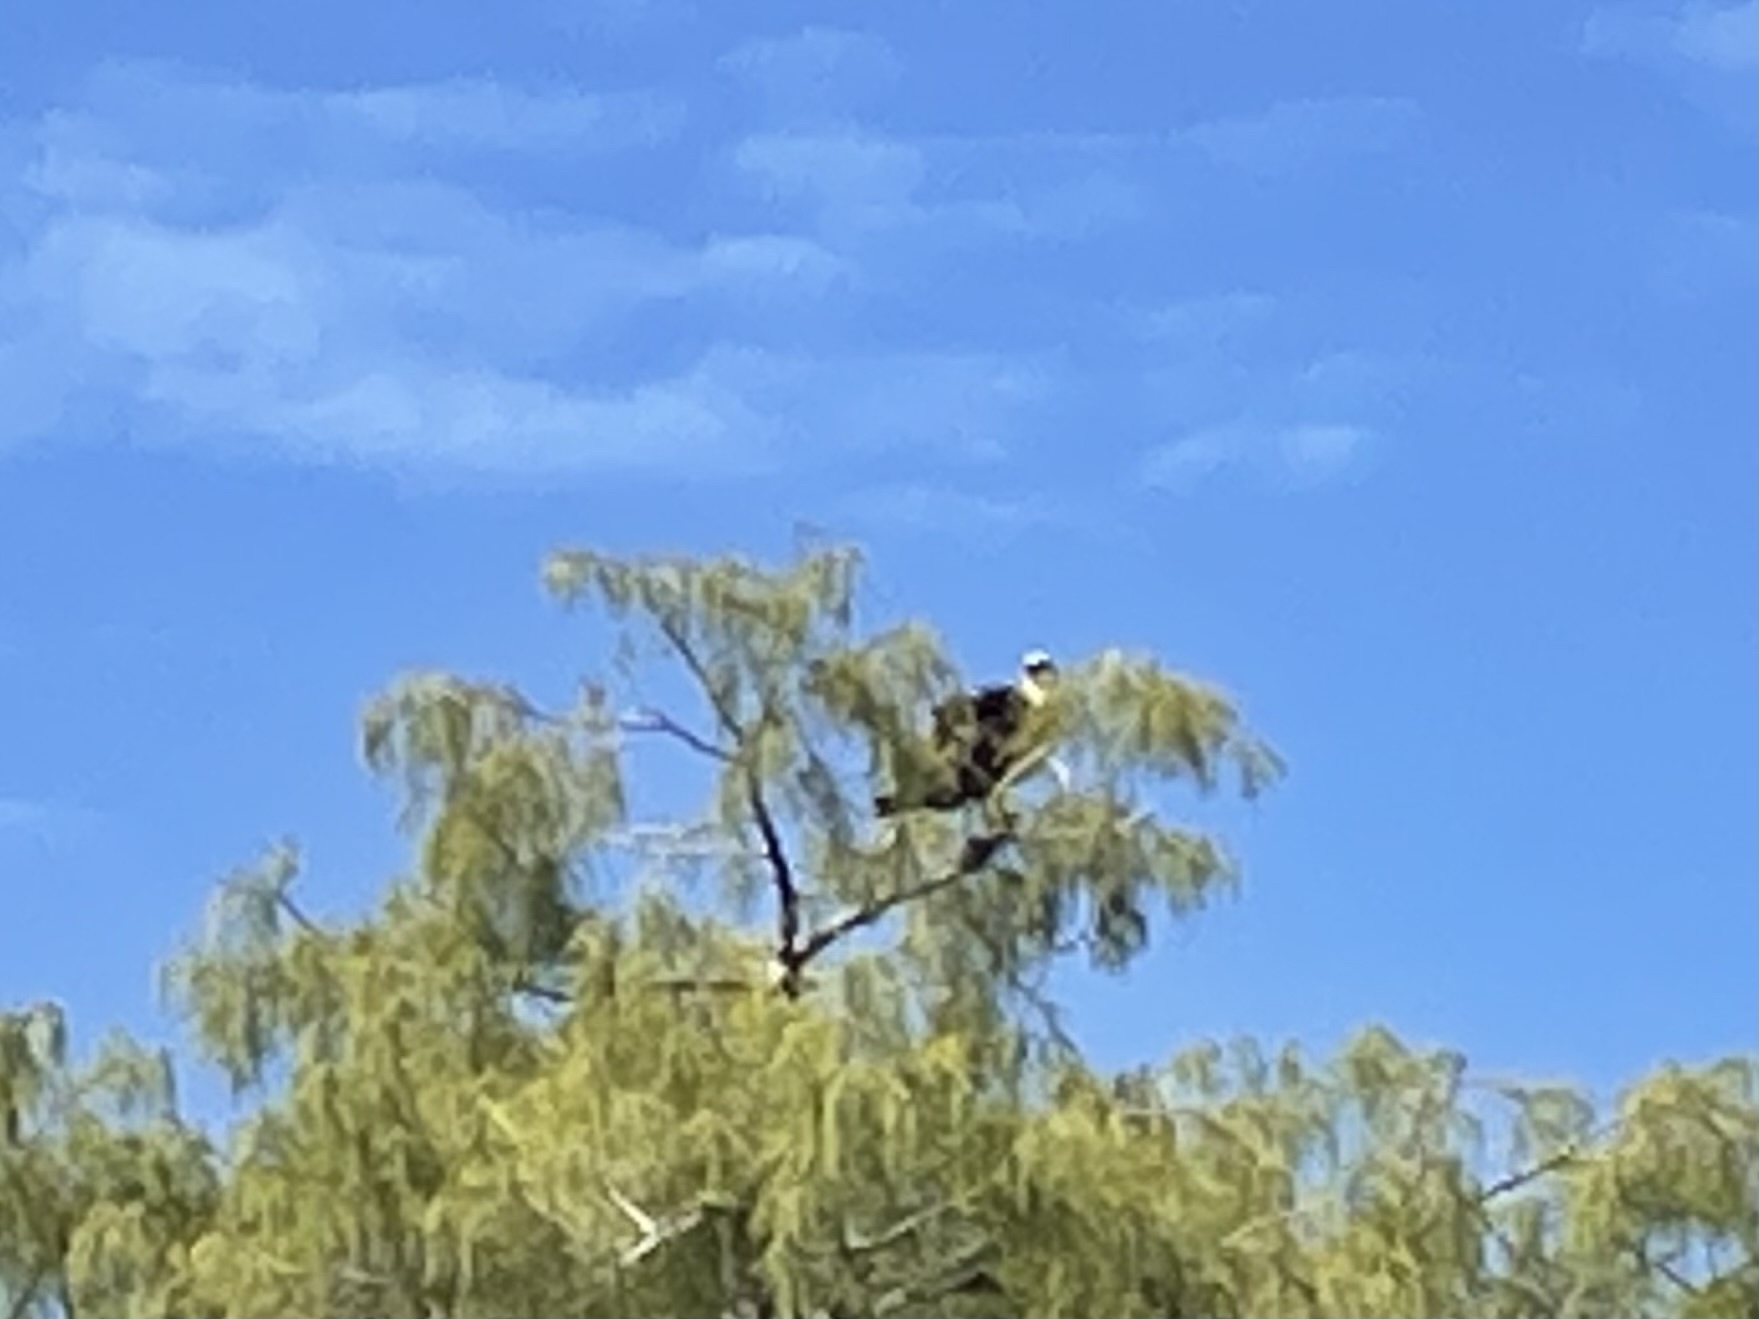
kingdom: Animalia
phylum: Chordata
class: Aves
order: Accipitriformes
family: Pandionidae
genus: Pandion
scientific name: Pandion haliaetus
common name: Osprey
